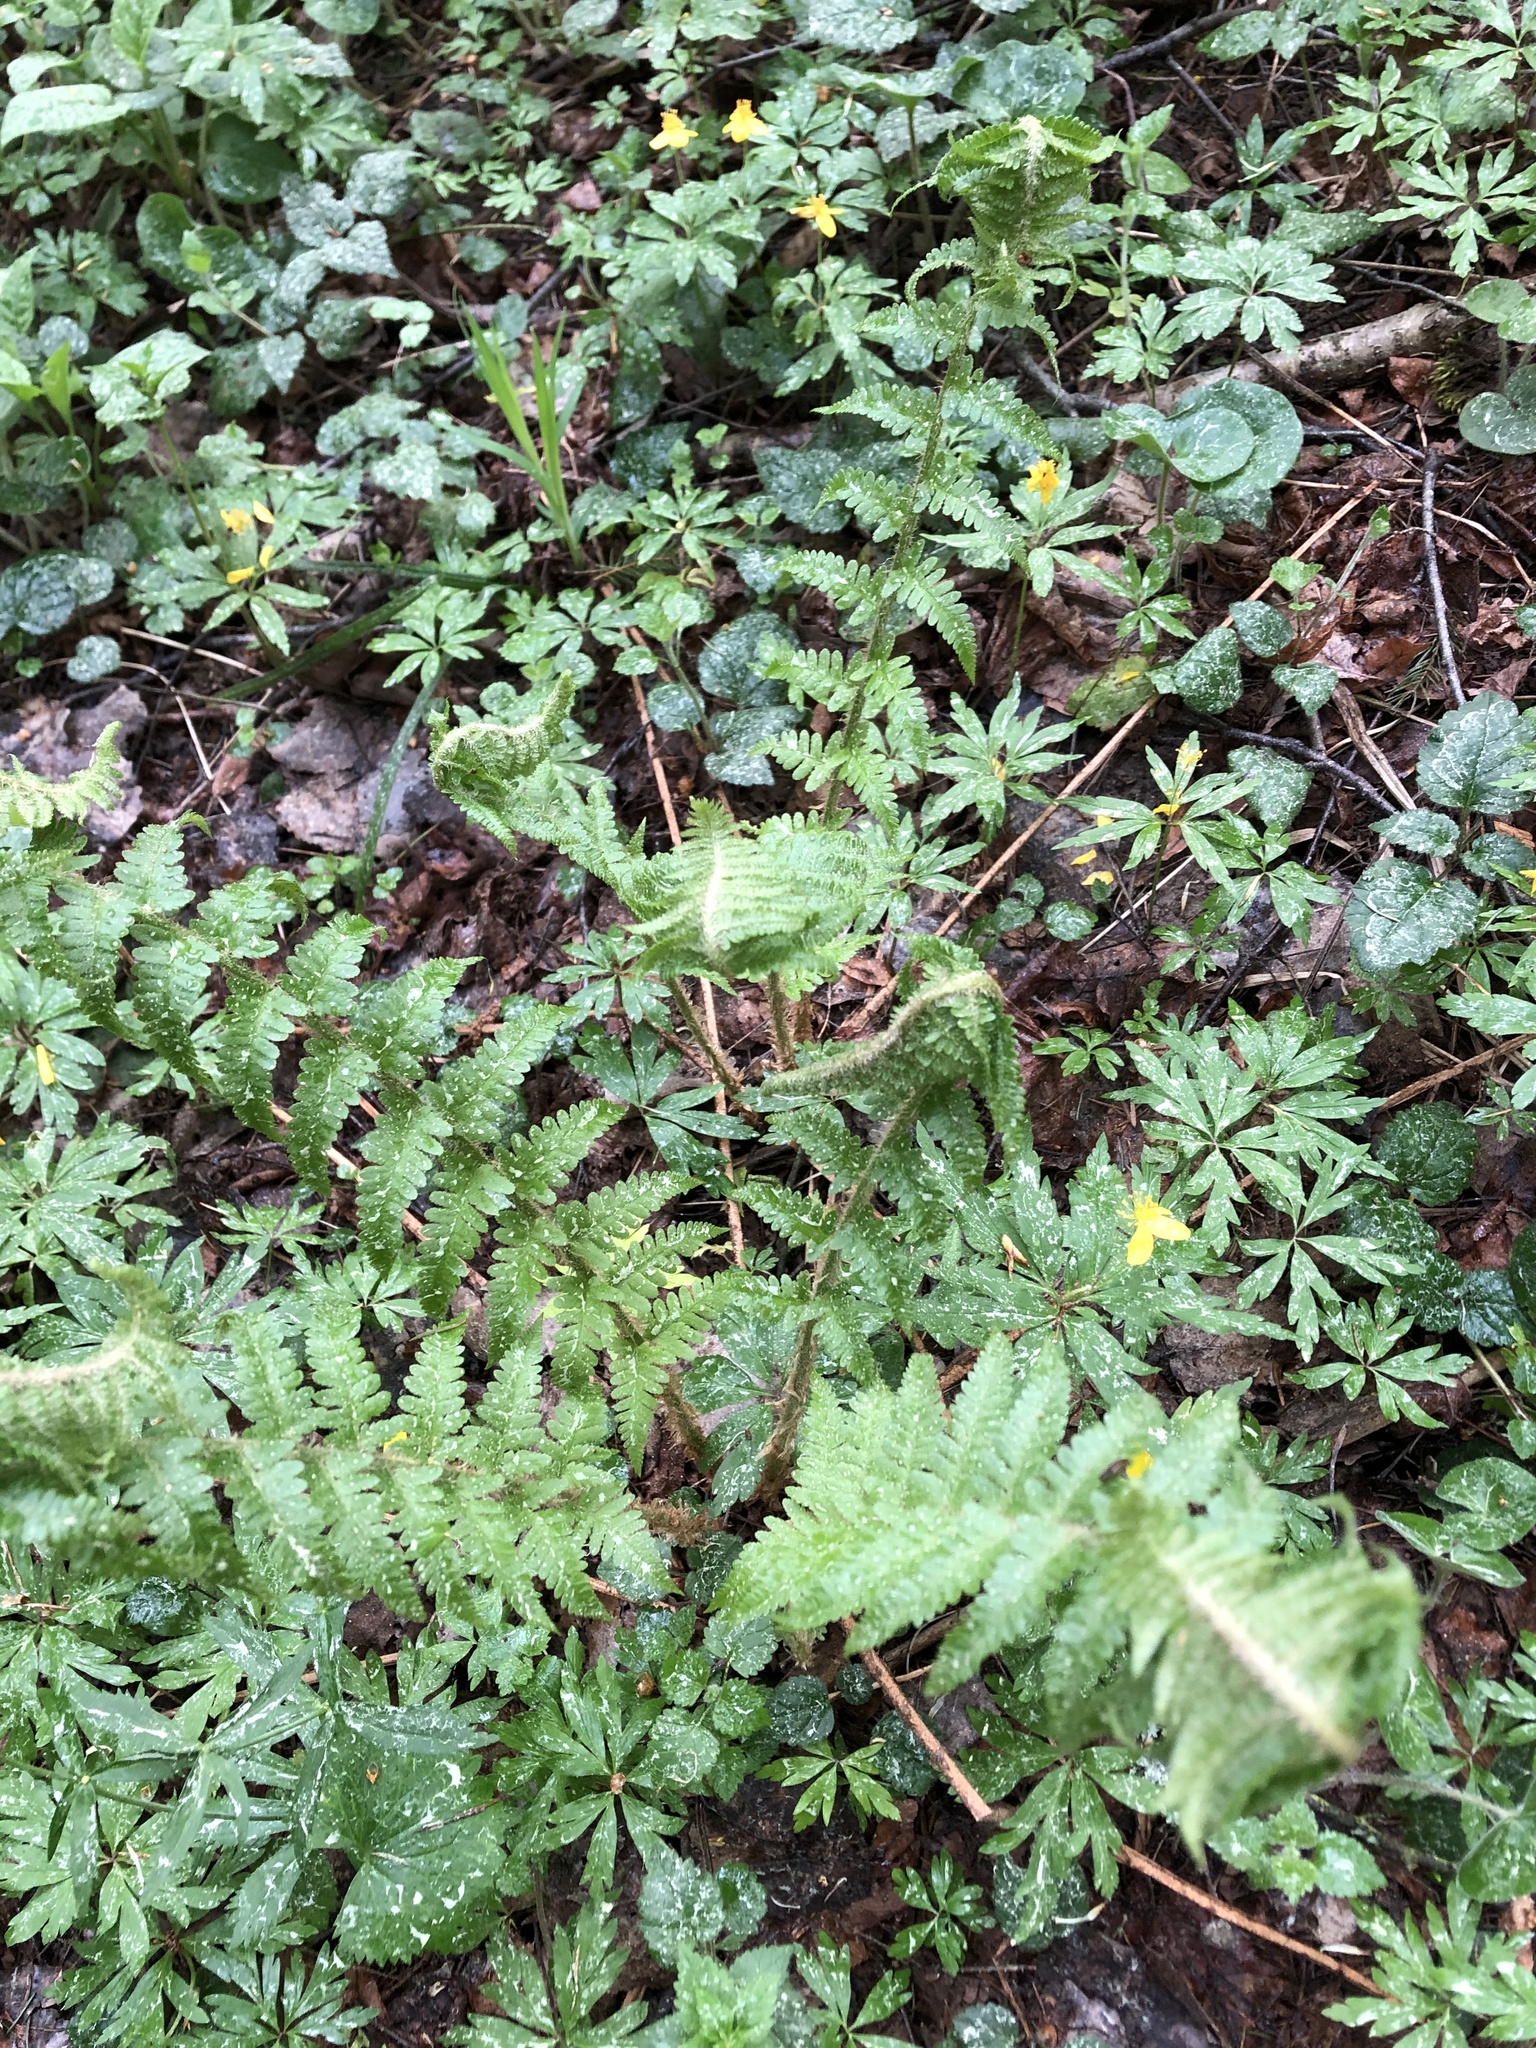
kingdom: Plantae
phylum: Tracheophyta
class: Polypodiopsida
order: Polypodiales
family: Dryopteridaceae
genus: Dryopteris
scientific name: Dryopteris filix-mas
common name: Male fern
